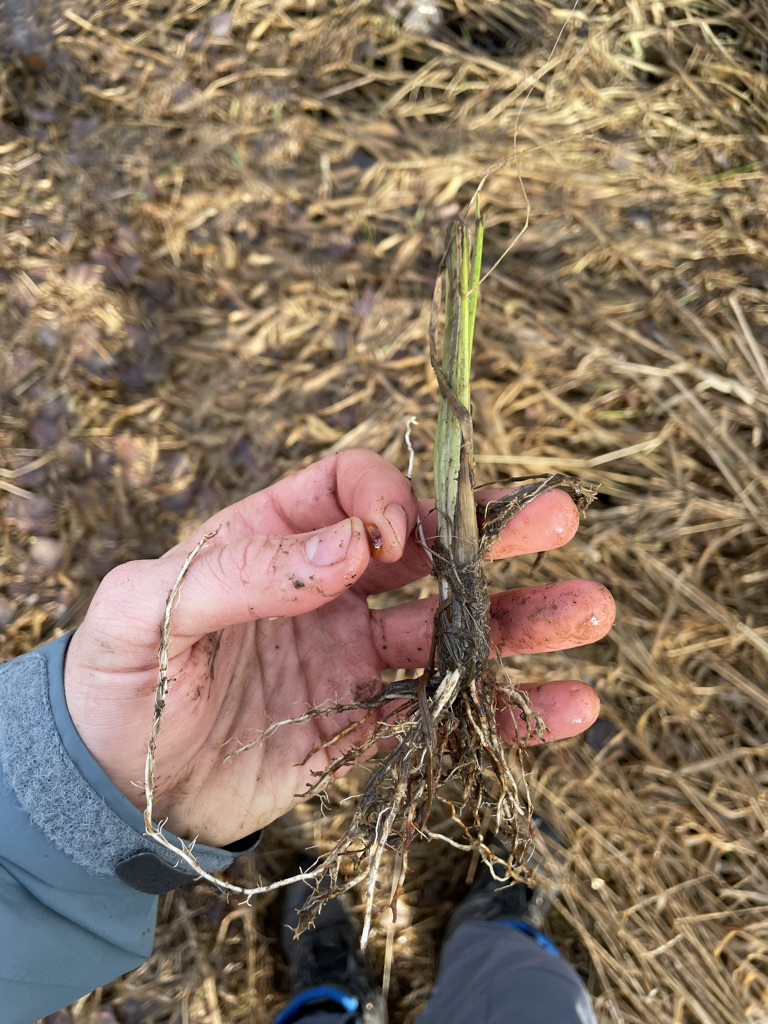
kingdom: Plantae
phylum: Tracheophyta
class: Liliopsida
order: Asparagales
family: Iridaceae
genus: Iris
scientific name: Iris pseudacorus
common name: Yellow flag
